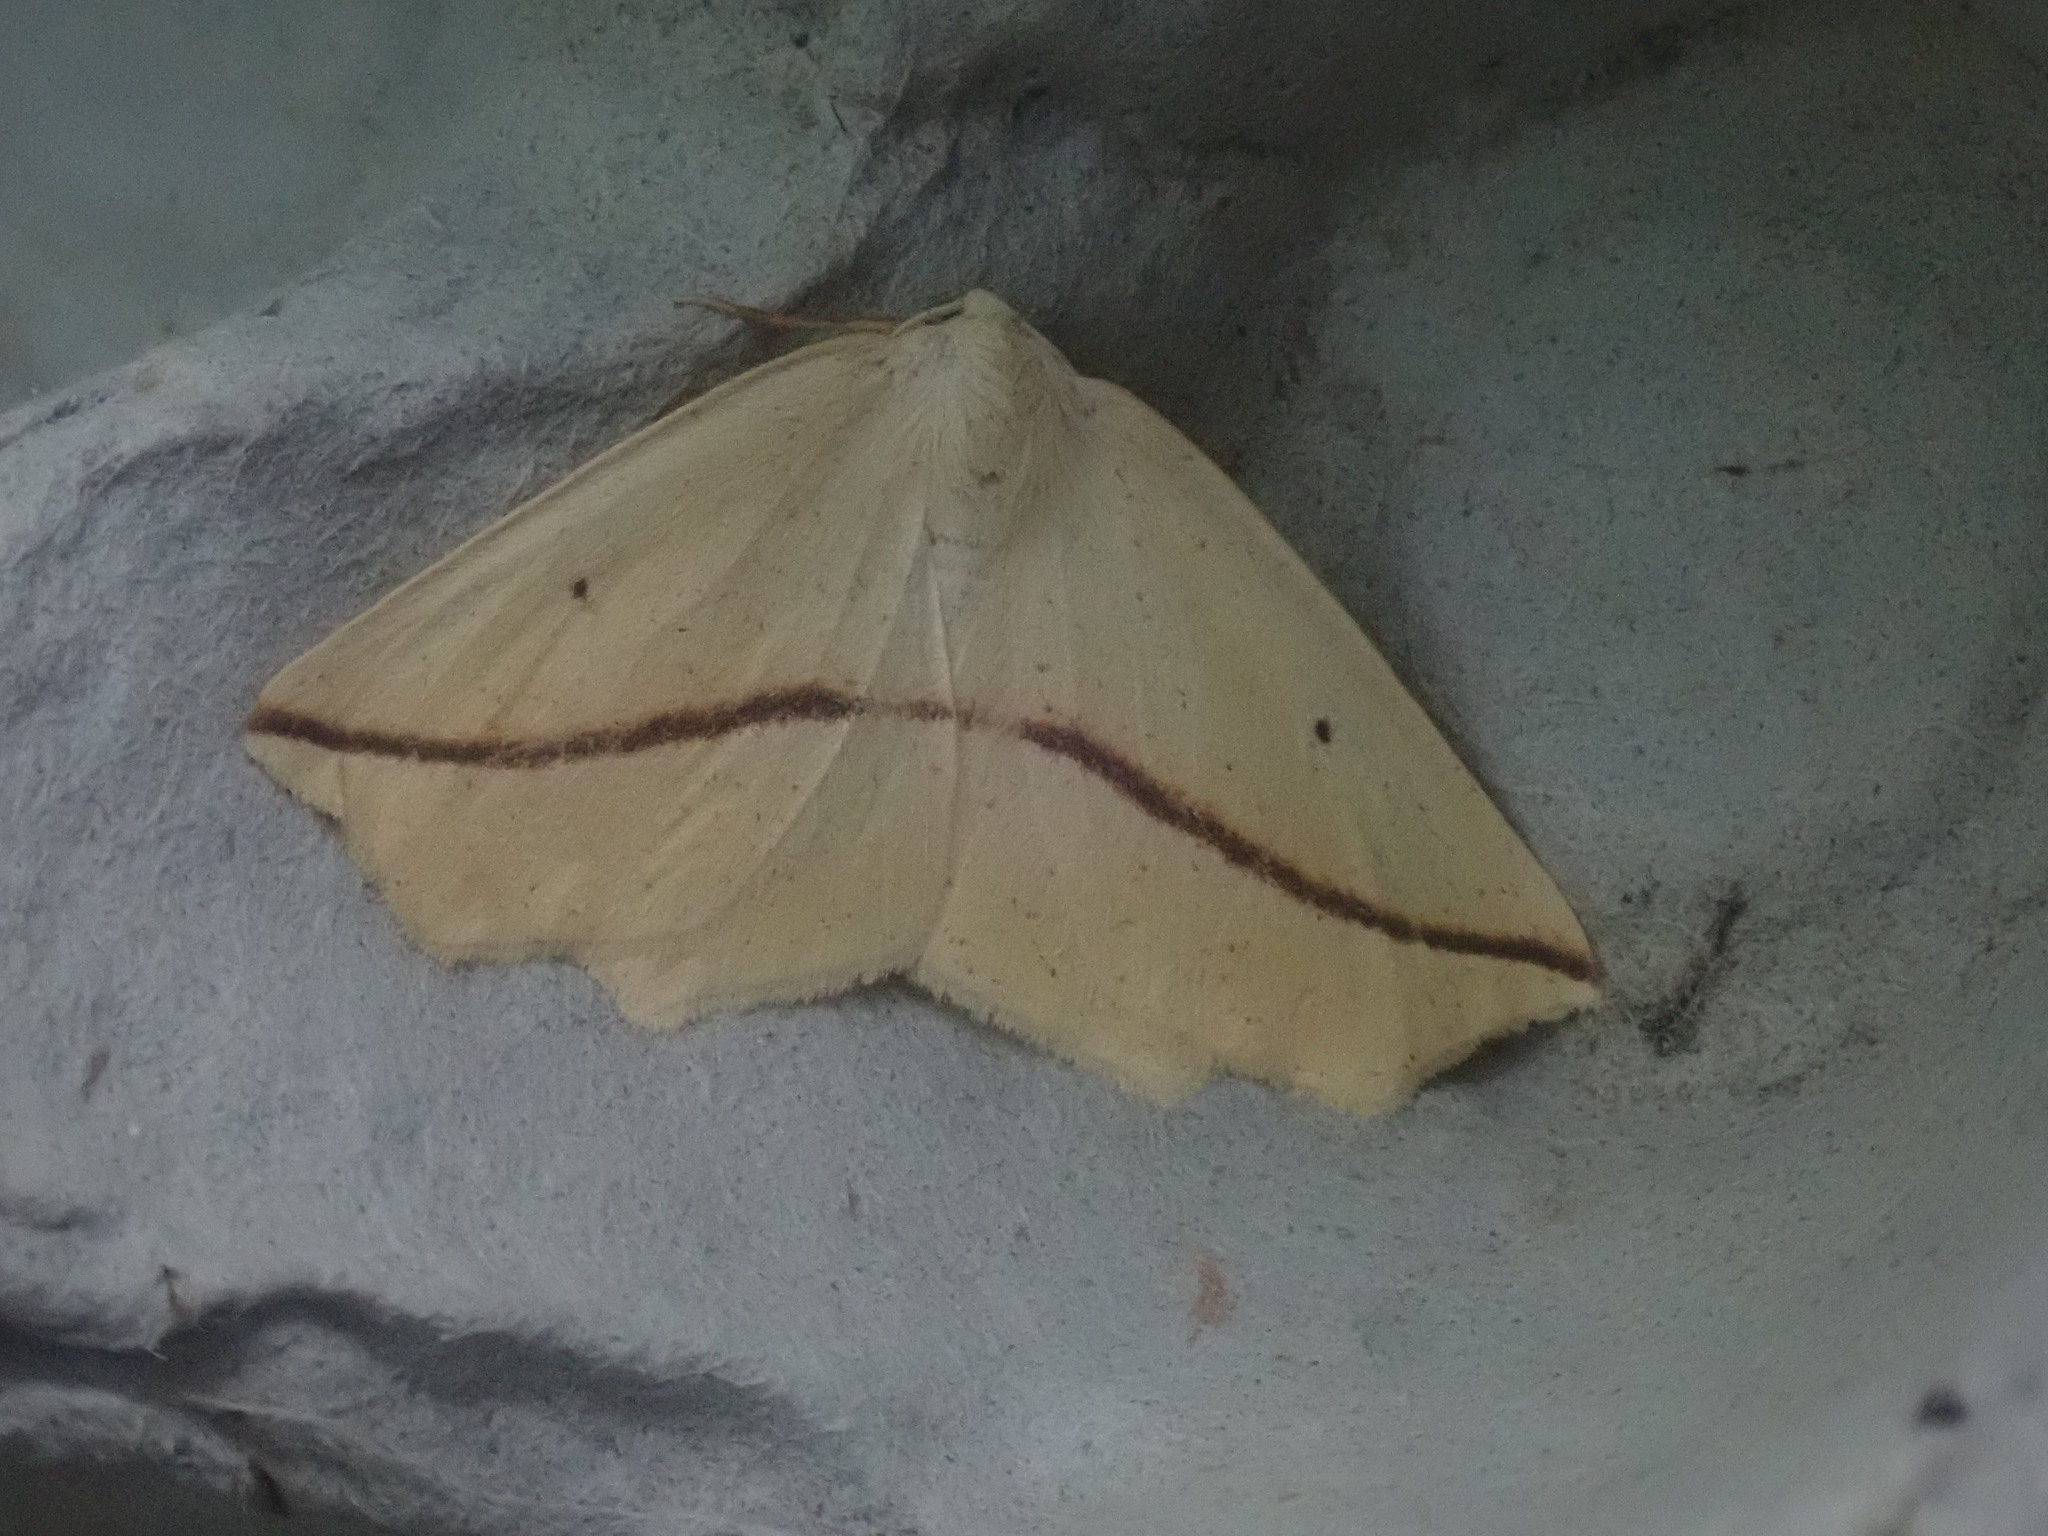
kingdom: Animalia
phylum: Arthropoda
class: Insecta
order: Lepidoptera
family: Geometridae
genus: Tetracis
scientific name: Tetracis crocallata
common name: Yellow slant-line
